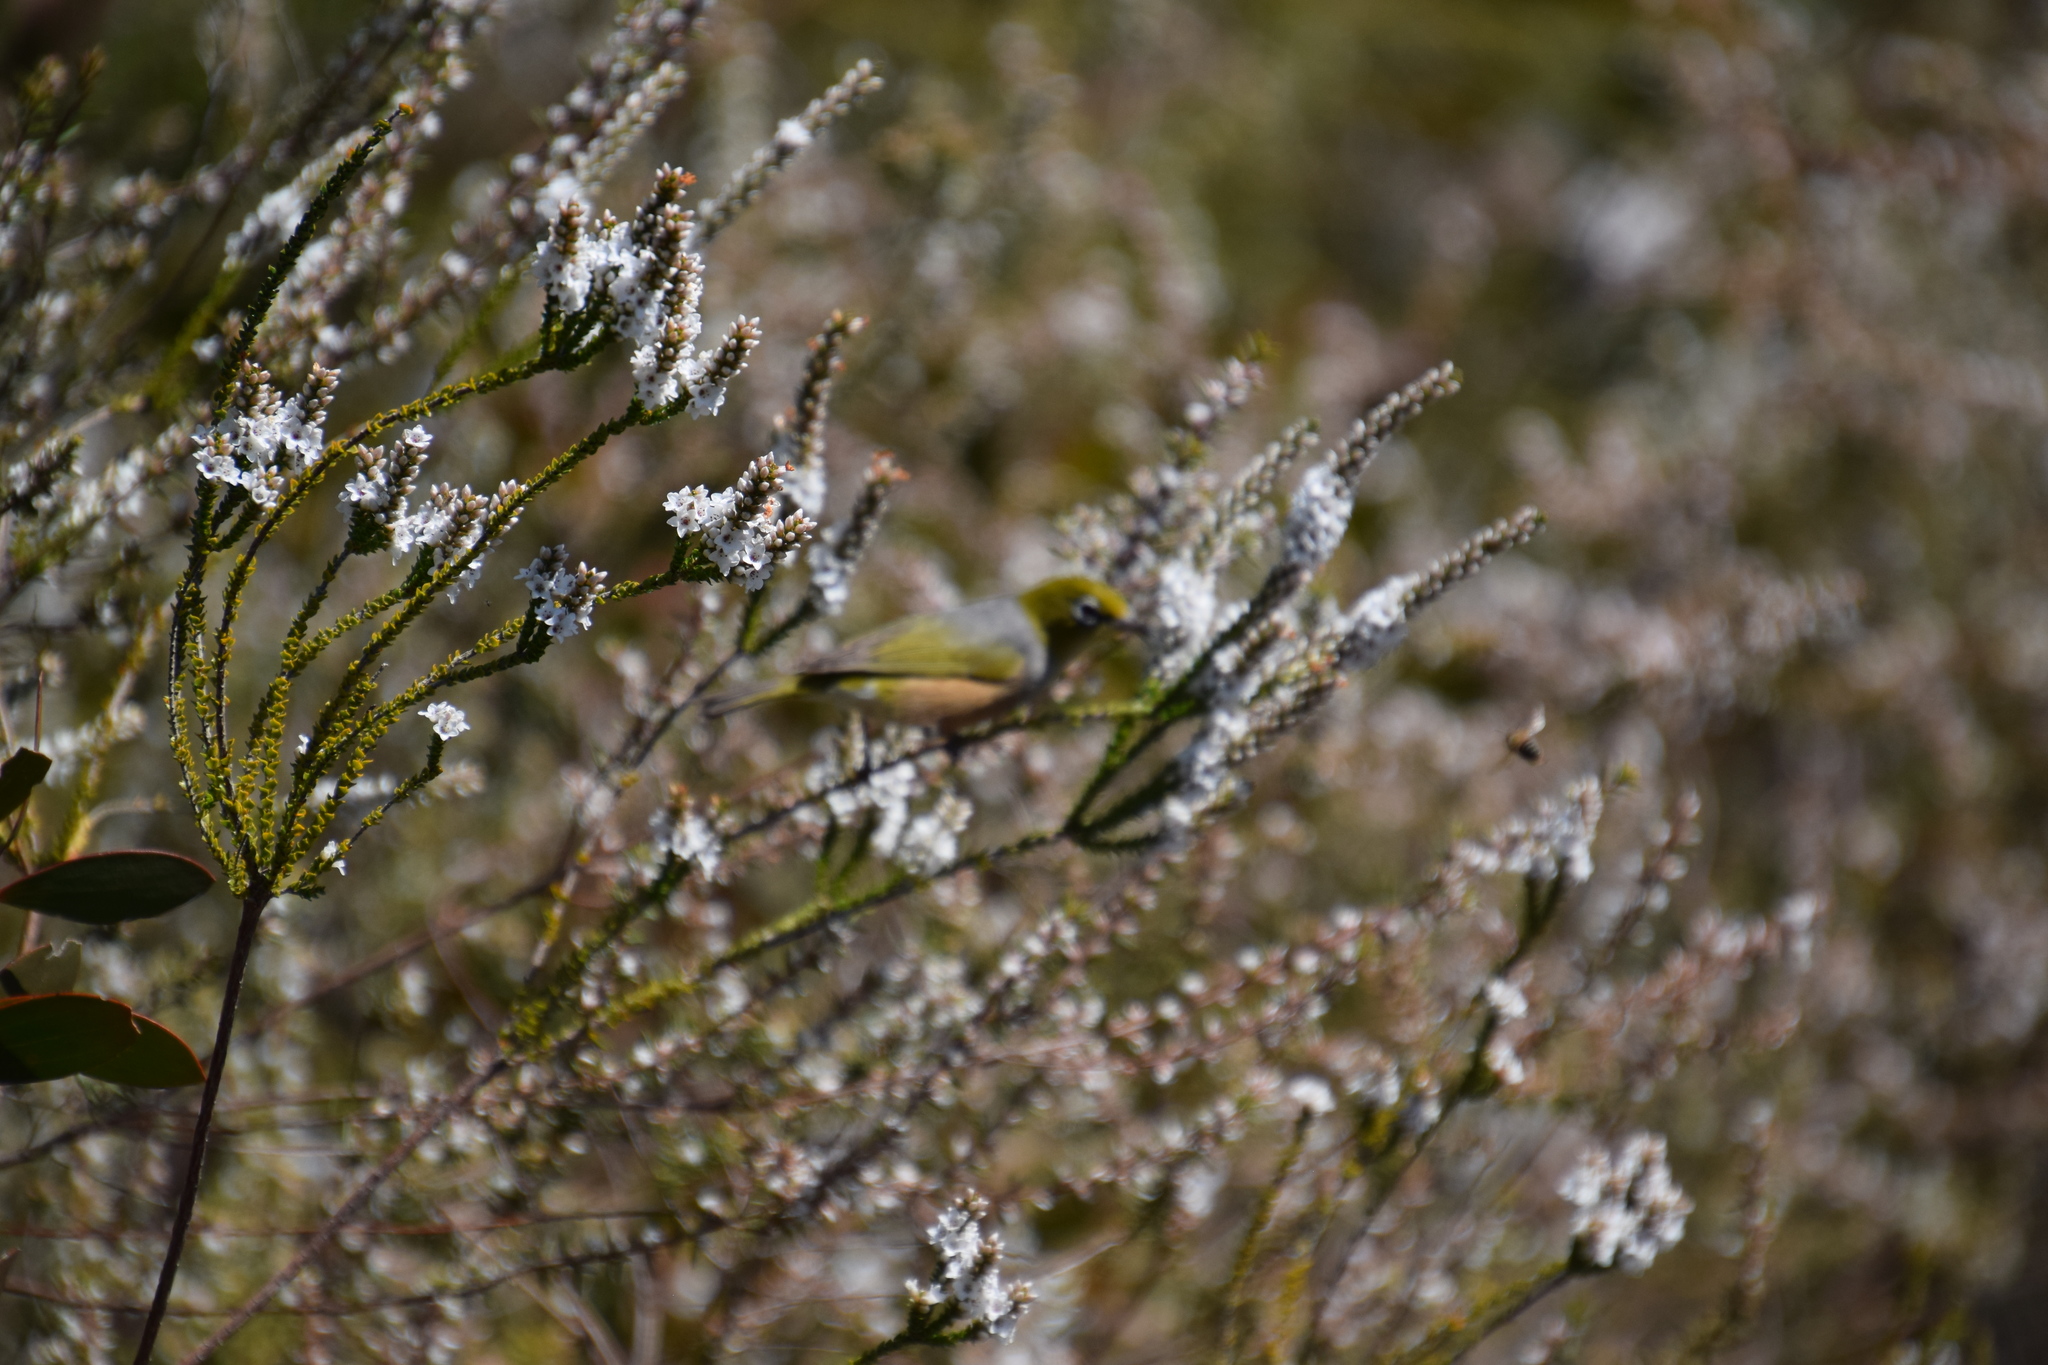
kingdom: Animalia
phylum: Chordata
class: Aves
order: Passeriformes
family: Zosteropidae
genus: Zosterops
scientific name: Zosterops lateralis
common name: Silvereye
